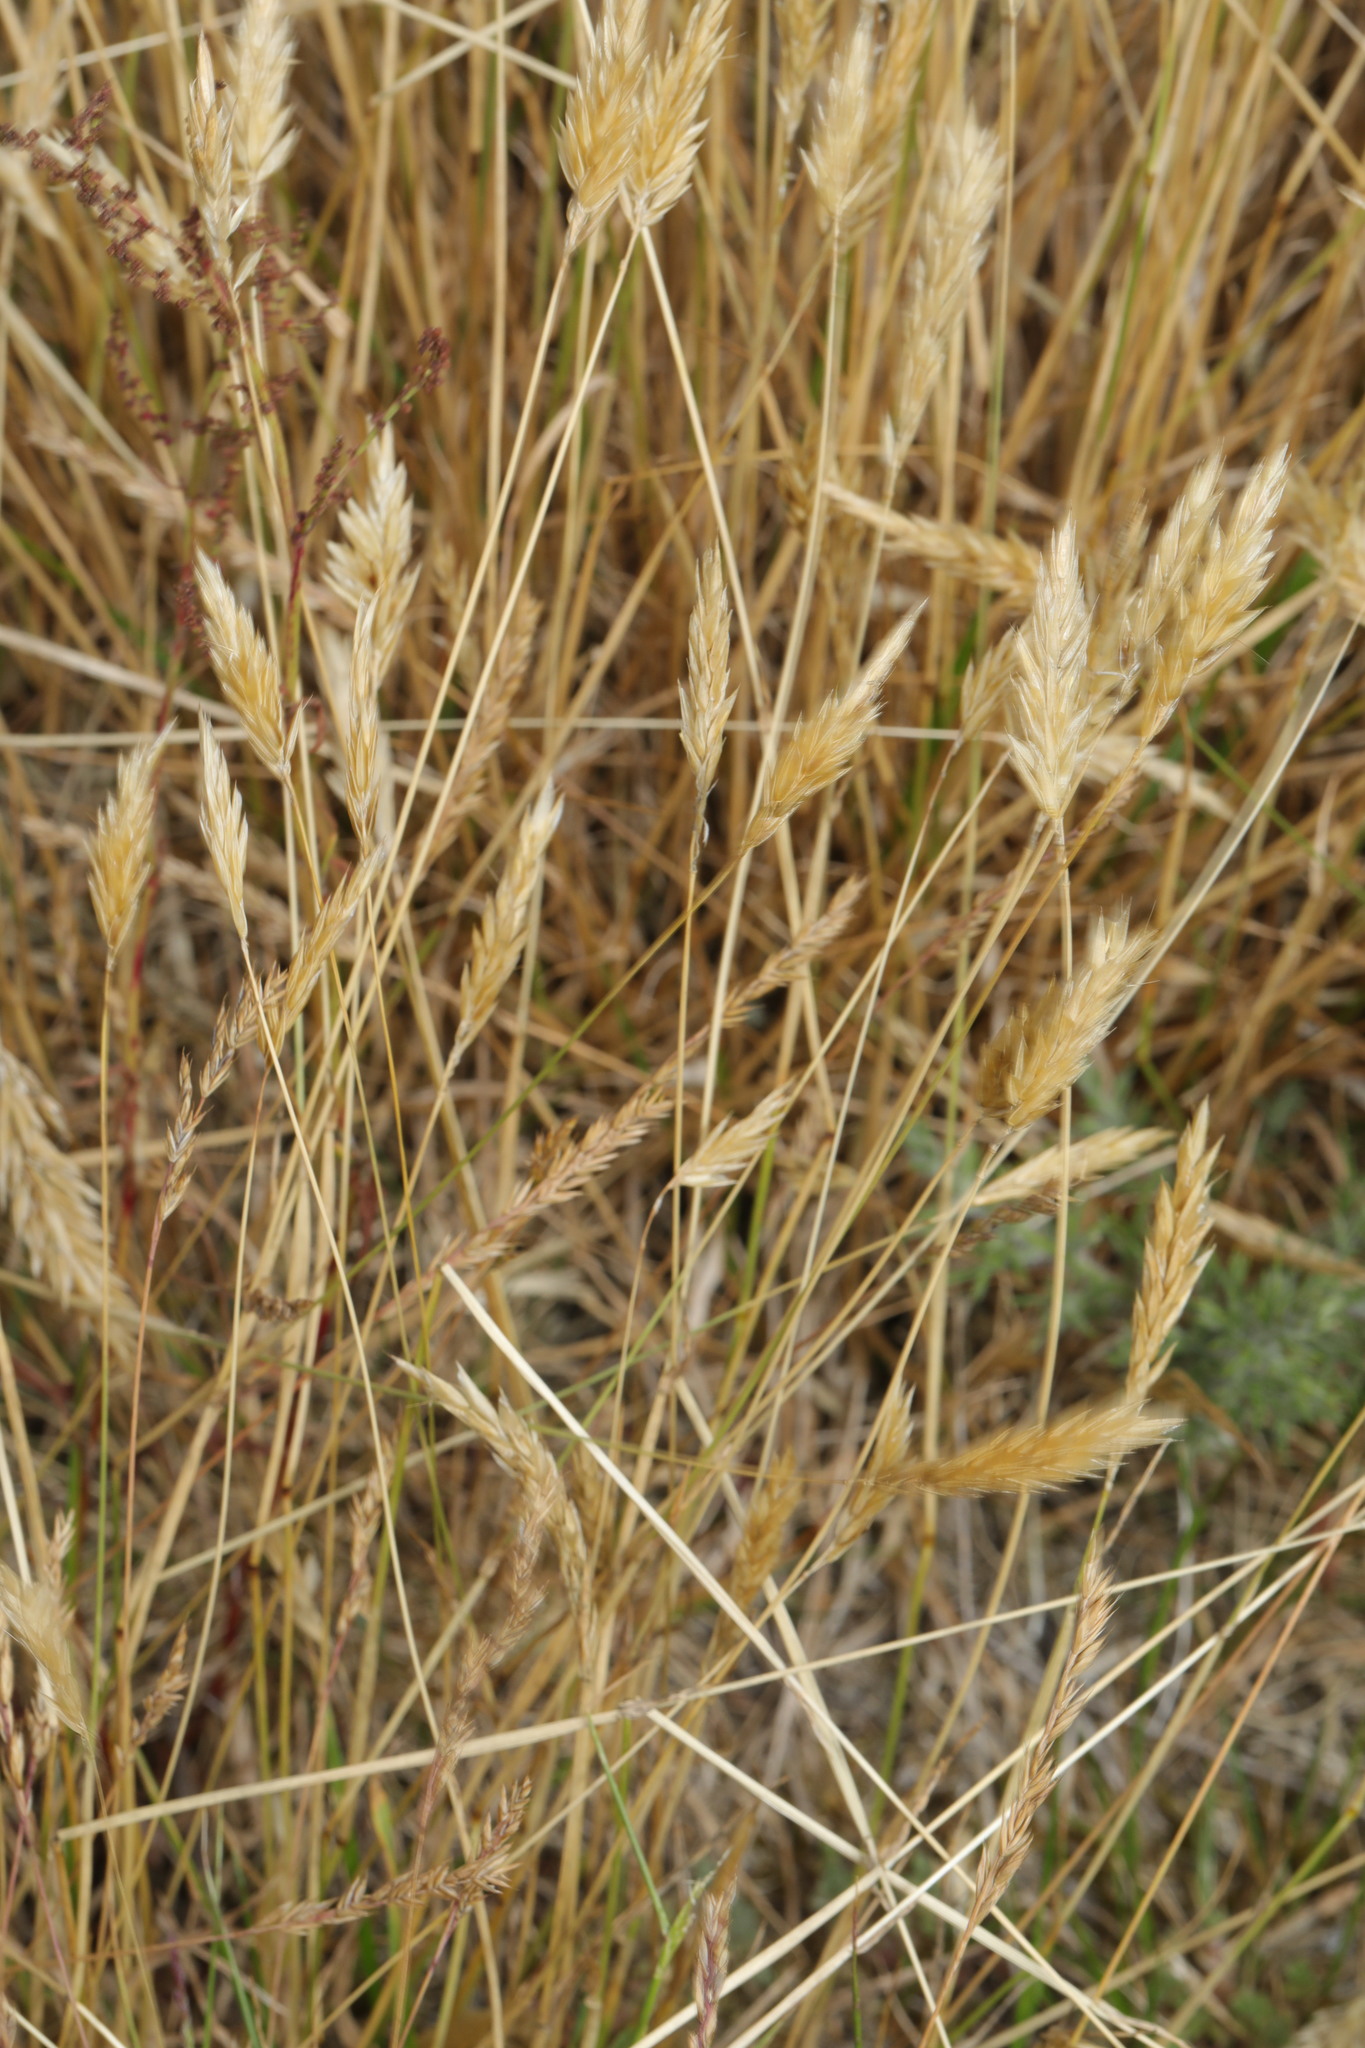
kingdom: Plantae
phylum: Tracheophyta
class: Liliopsida
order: Poales
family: Poaceae
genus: Anthoxanthum
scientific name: Anthoxanthum odoratum
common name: Sweet vernalgrass
